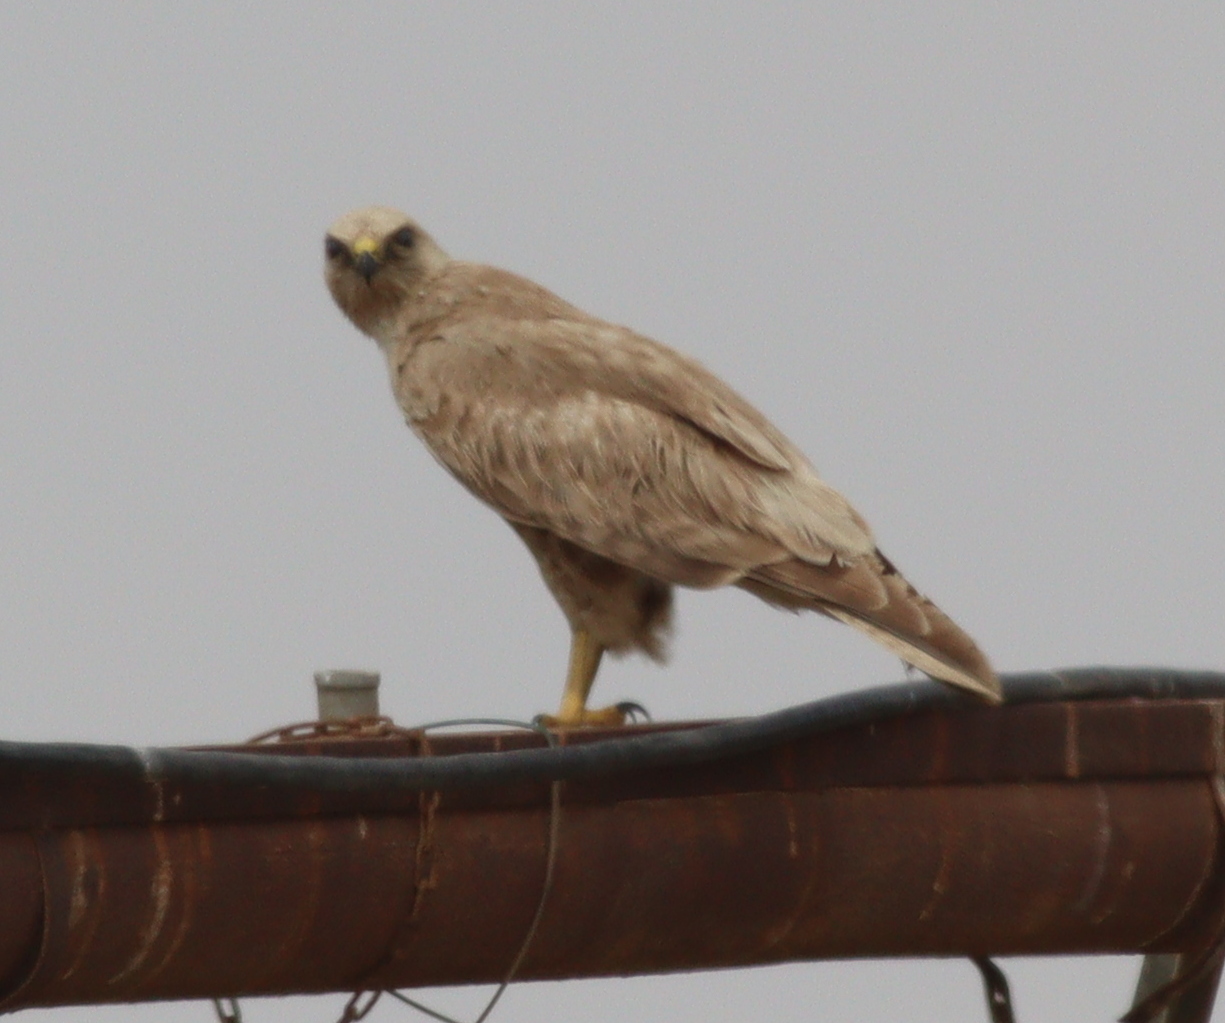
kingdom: Animalia
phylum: Chordata
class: Aves
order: Accipitriformes
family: Accipitridae
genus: Buteo
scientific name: Buteo rufinus
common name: Long-legged buzzard
